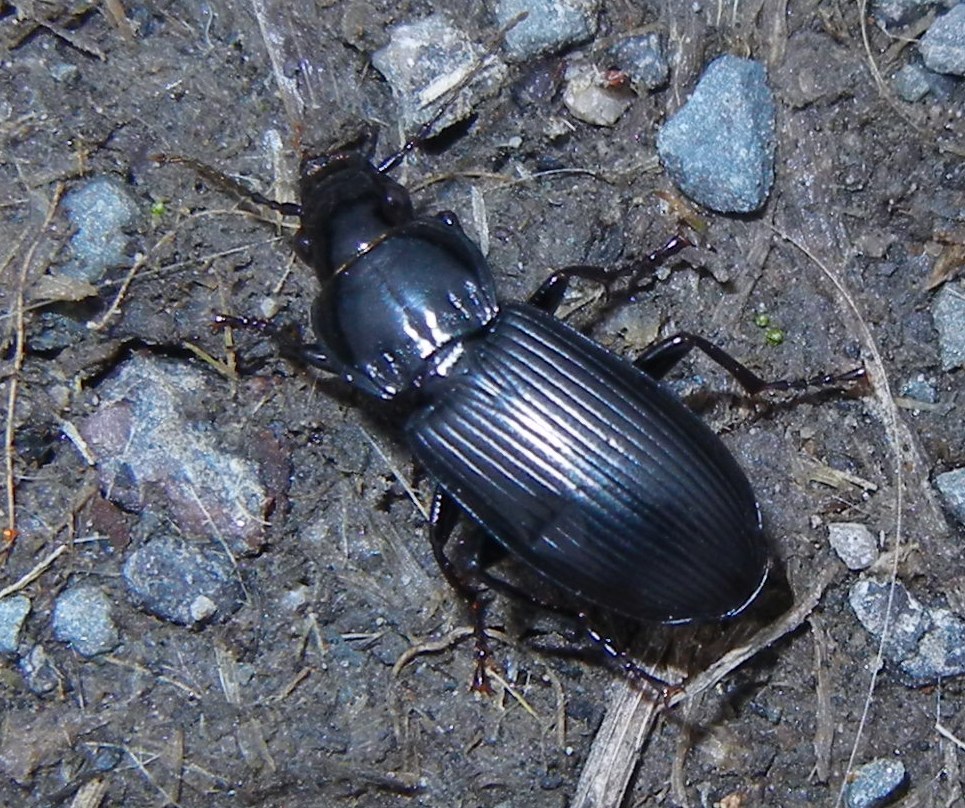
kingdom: Animalia
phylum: Arthropoda
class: Insecta
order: Coleoptera
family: Carabidae
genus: Pterostichus
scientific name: Pterostichus melanarius
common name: European dark harp ground beetle
